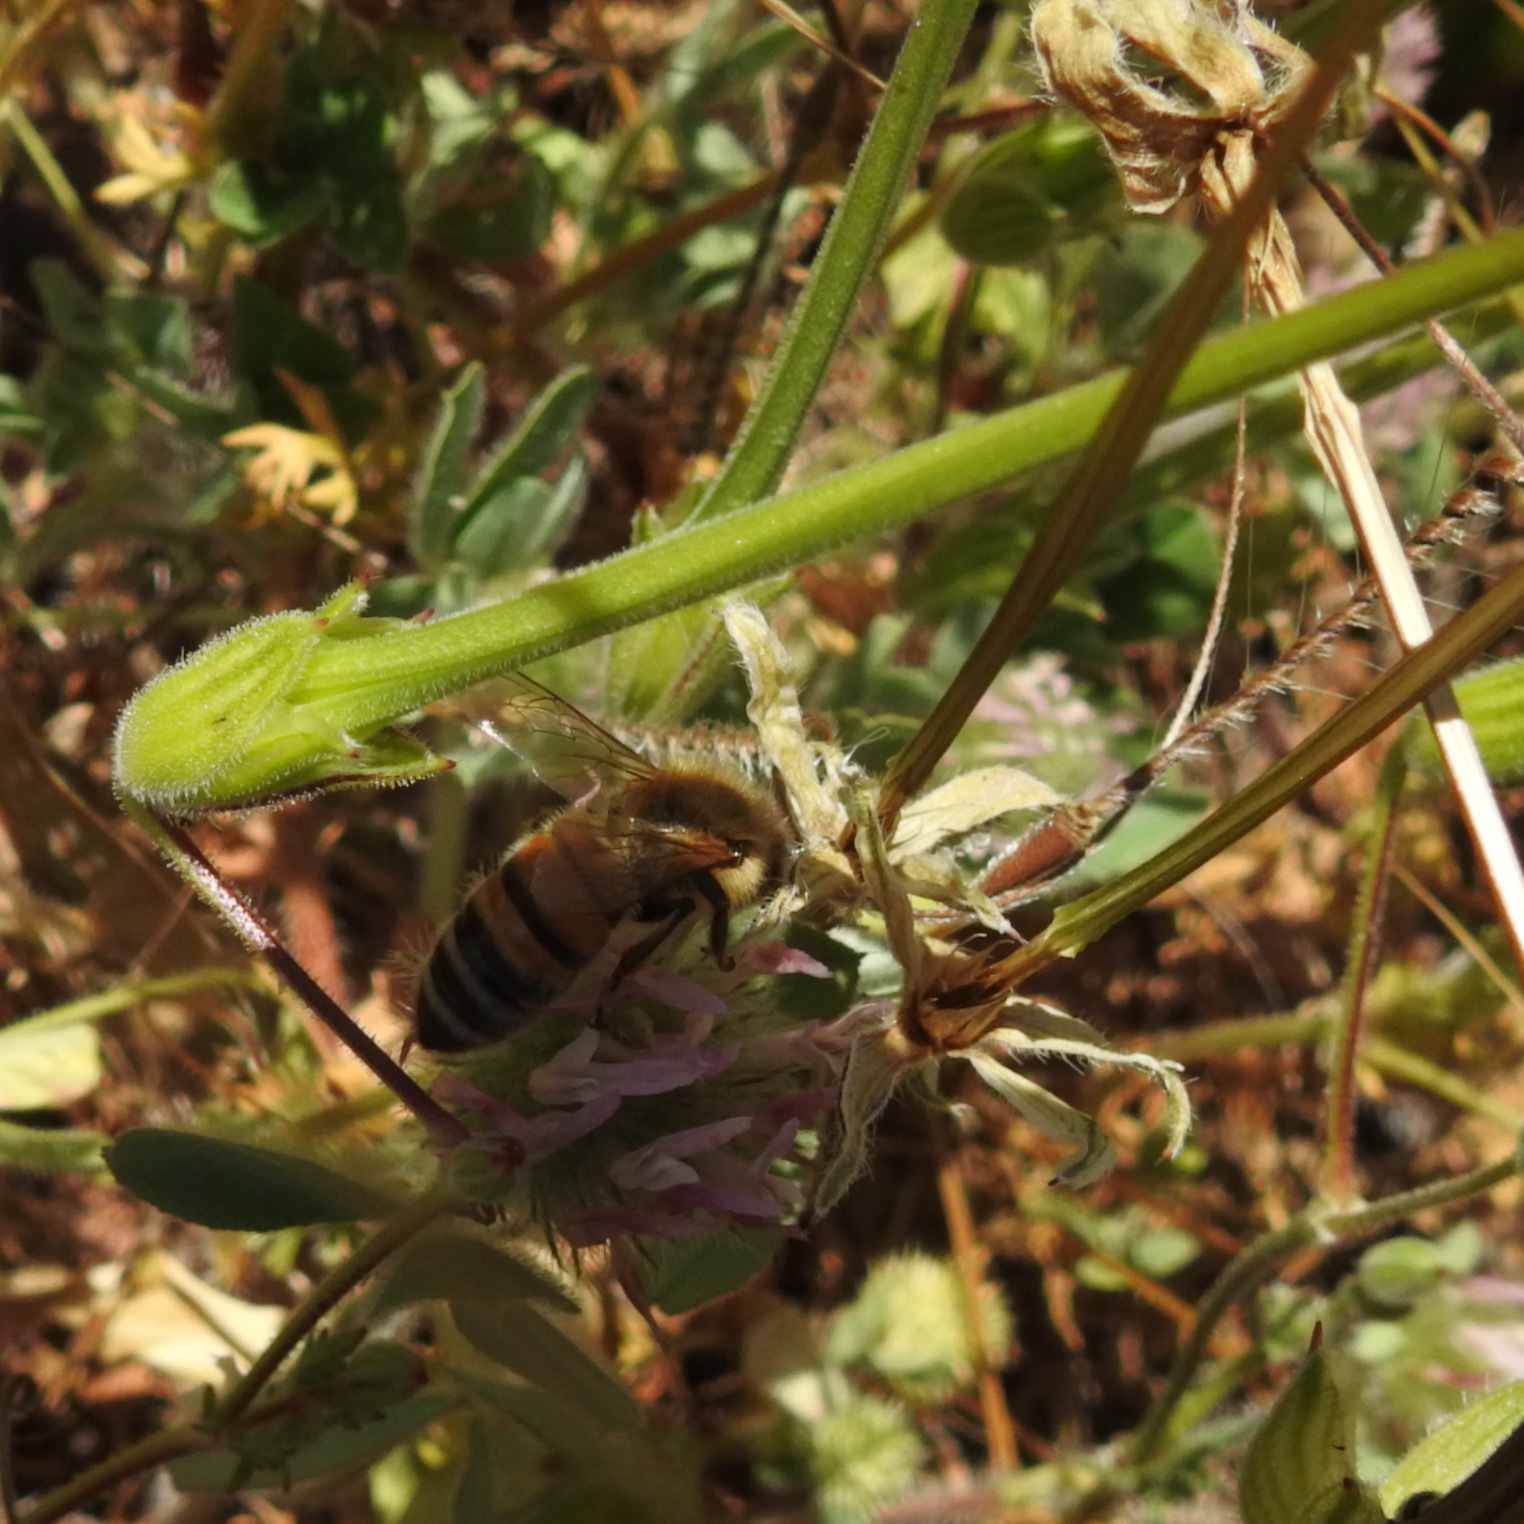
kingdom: Plantae
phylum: Tracheophyta
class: Magnoliopsida
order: Geraniales
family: Geraniaceae
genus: Erodium
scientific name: Erodium botrys
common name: Mediterranean stork's-bill
